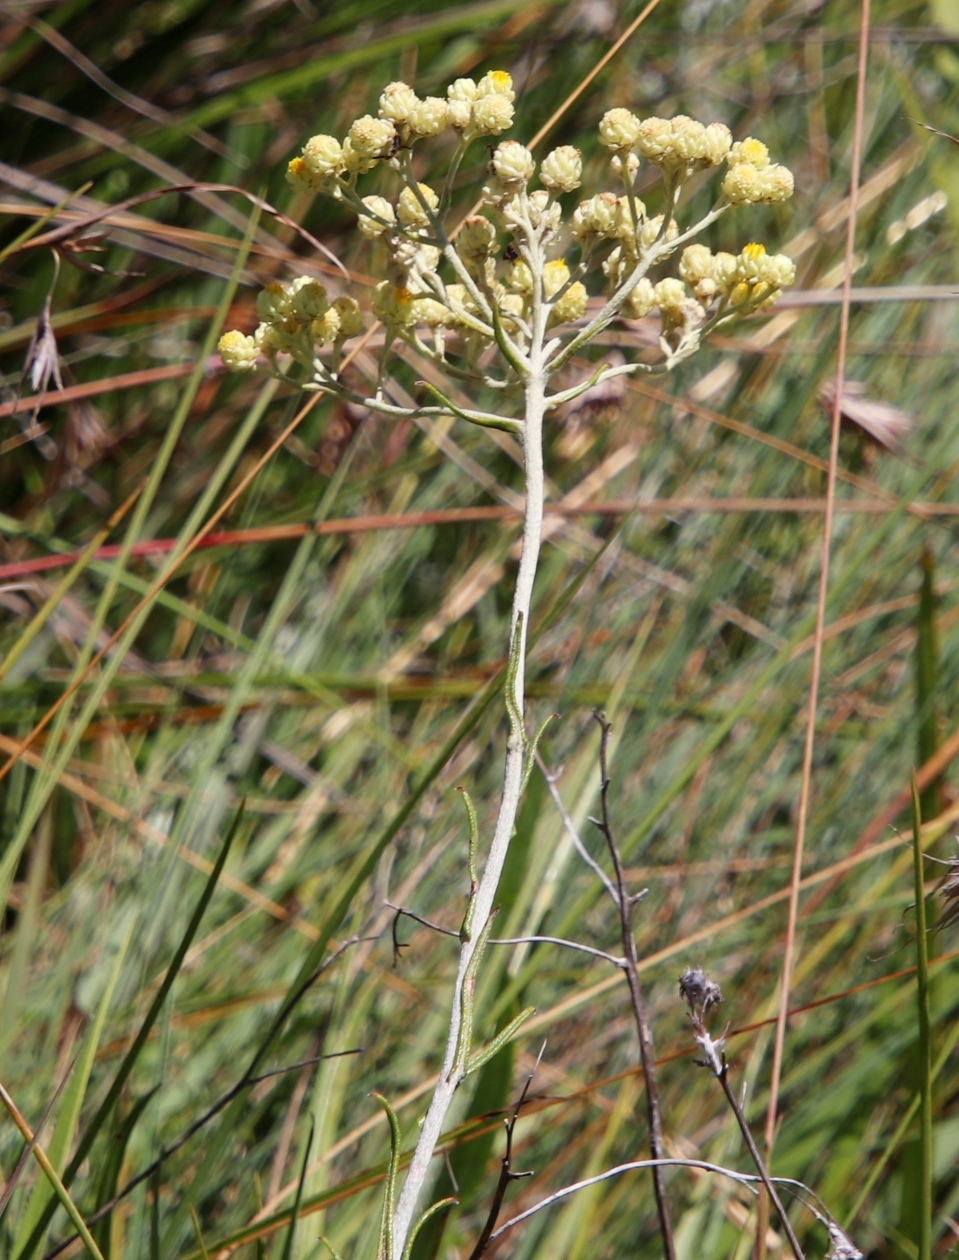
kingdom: Plantae
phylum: Tracheophyta
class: Magnoliopsida
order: Asterales
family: Asteraceae
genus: Helichrysum
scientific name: Helichrysum nudifolium
